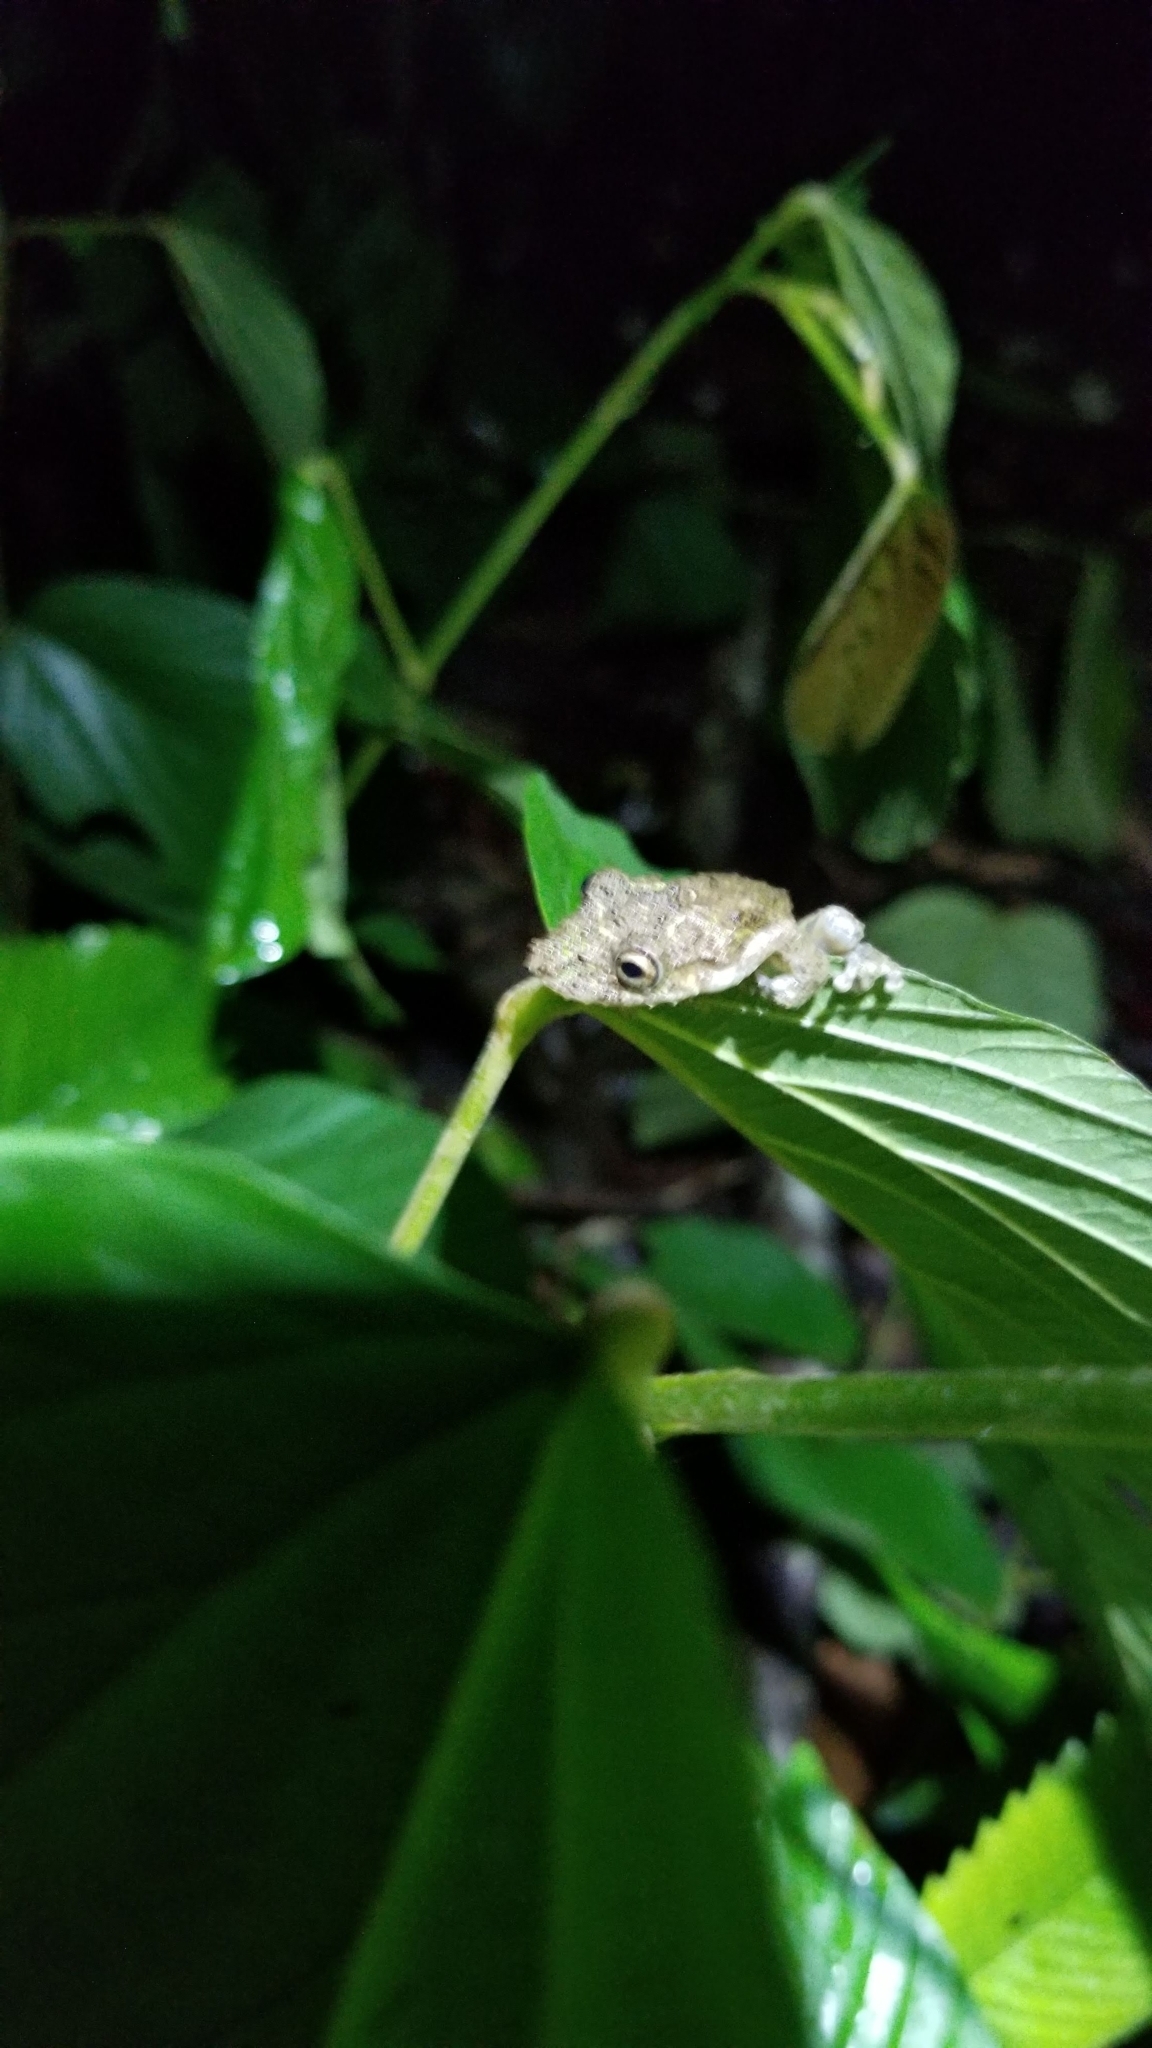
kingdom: Animalia
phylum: Chordata
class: Amphibia
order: Anura
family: Hylidae
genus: Scinax
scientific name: Scinax boulengeri
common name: Boulenger's snouted treefrog
